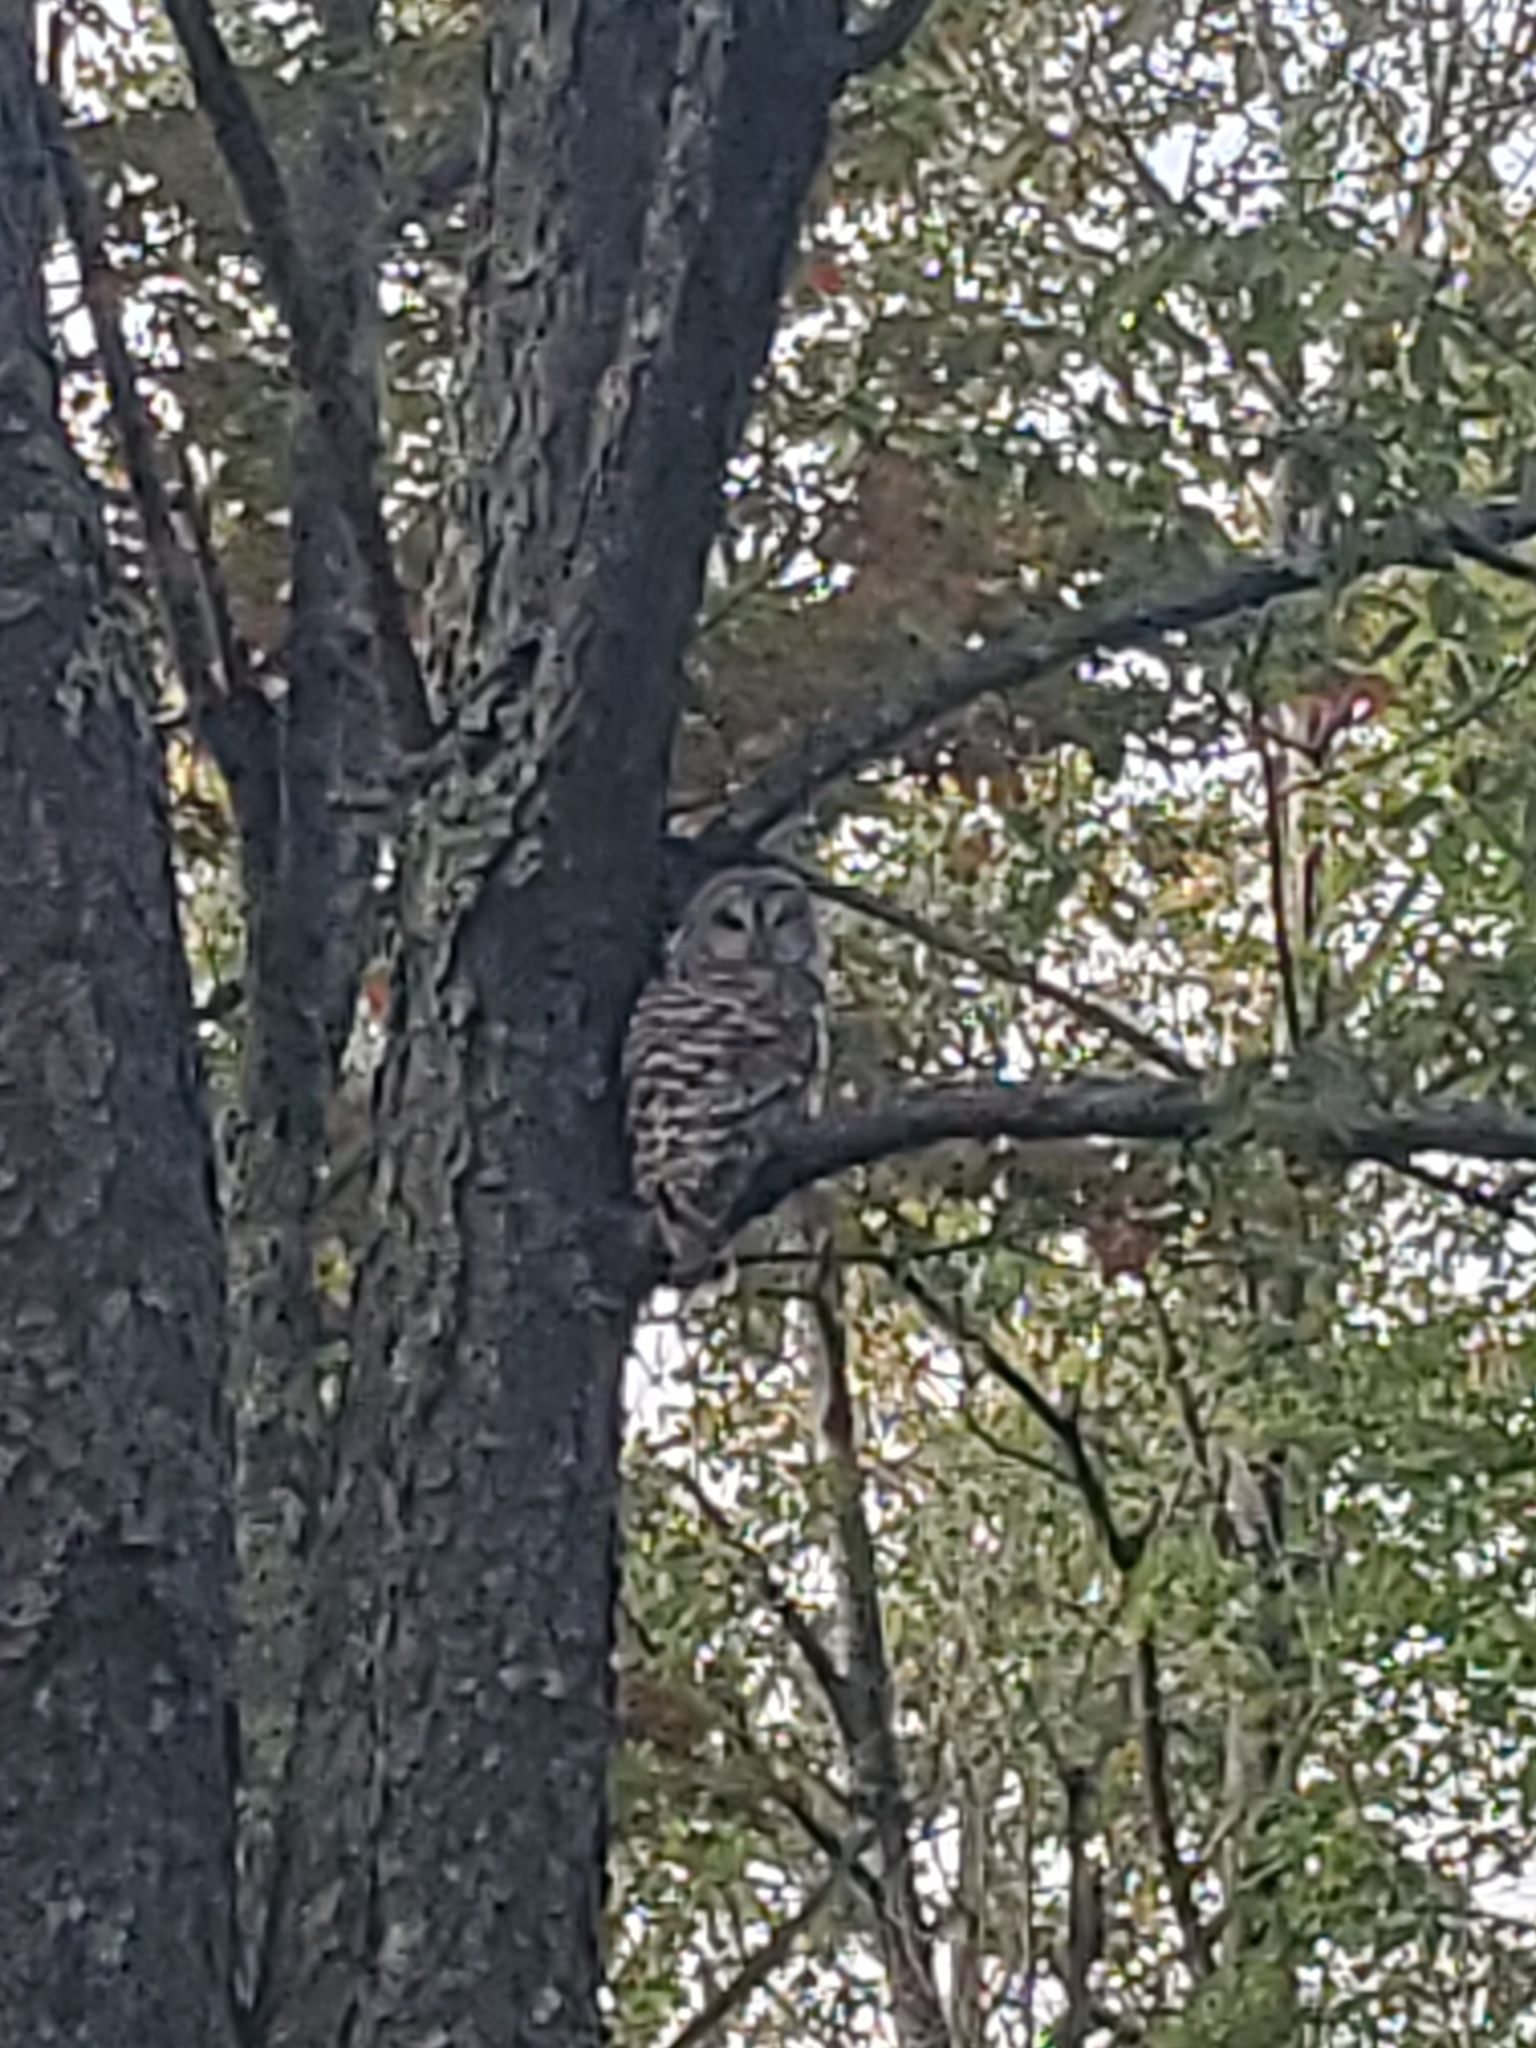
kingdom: Animalia
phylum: Chordata
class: Aves
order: Strigiformes
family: Strigidae
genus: Strix
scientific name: Strix varia
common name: Barred owl
